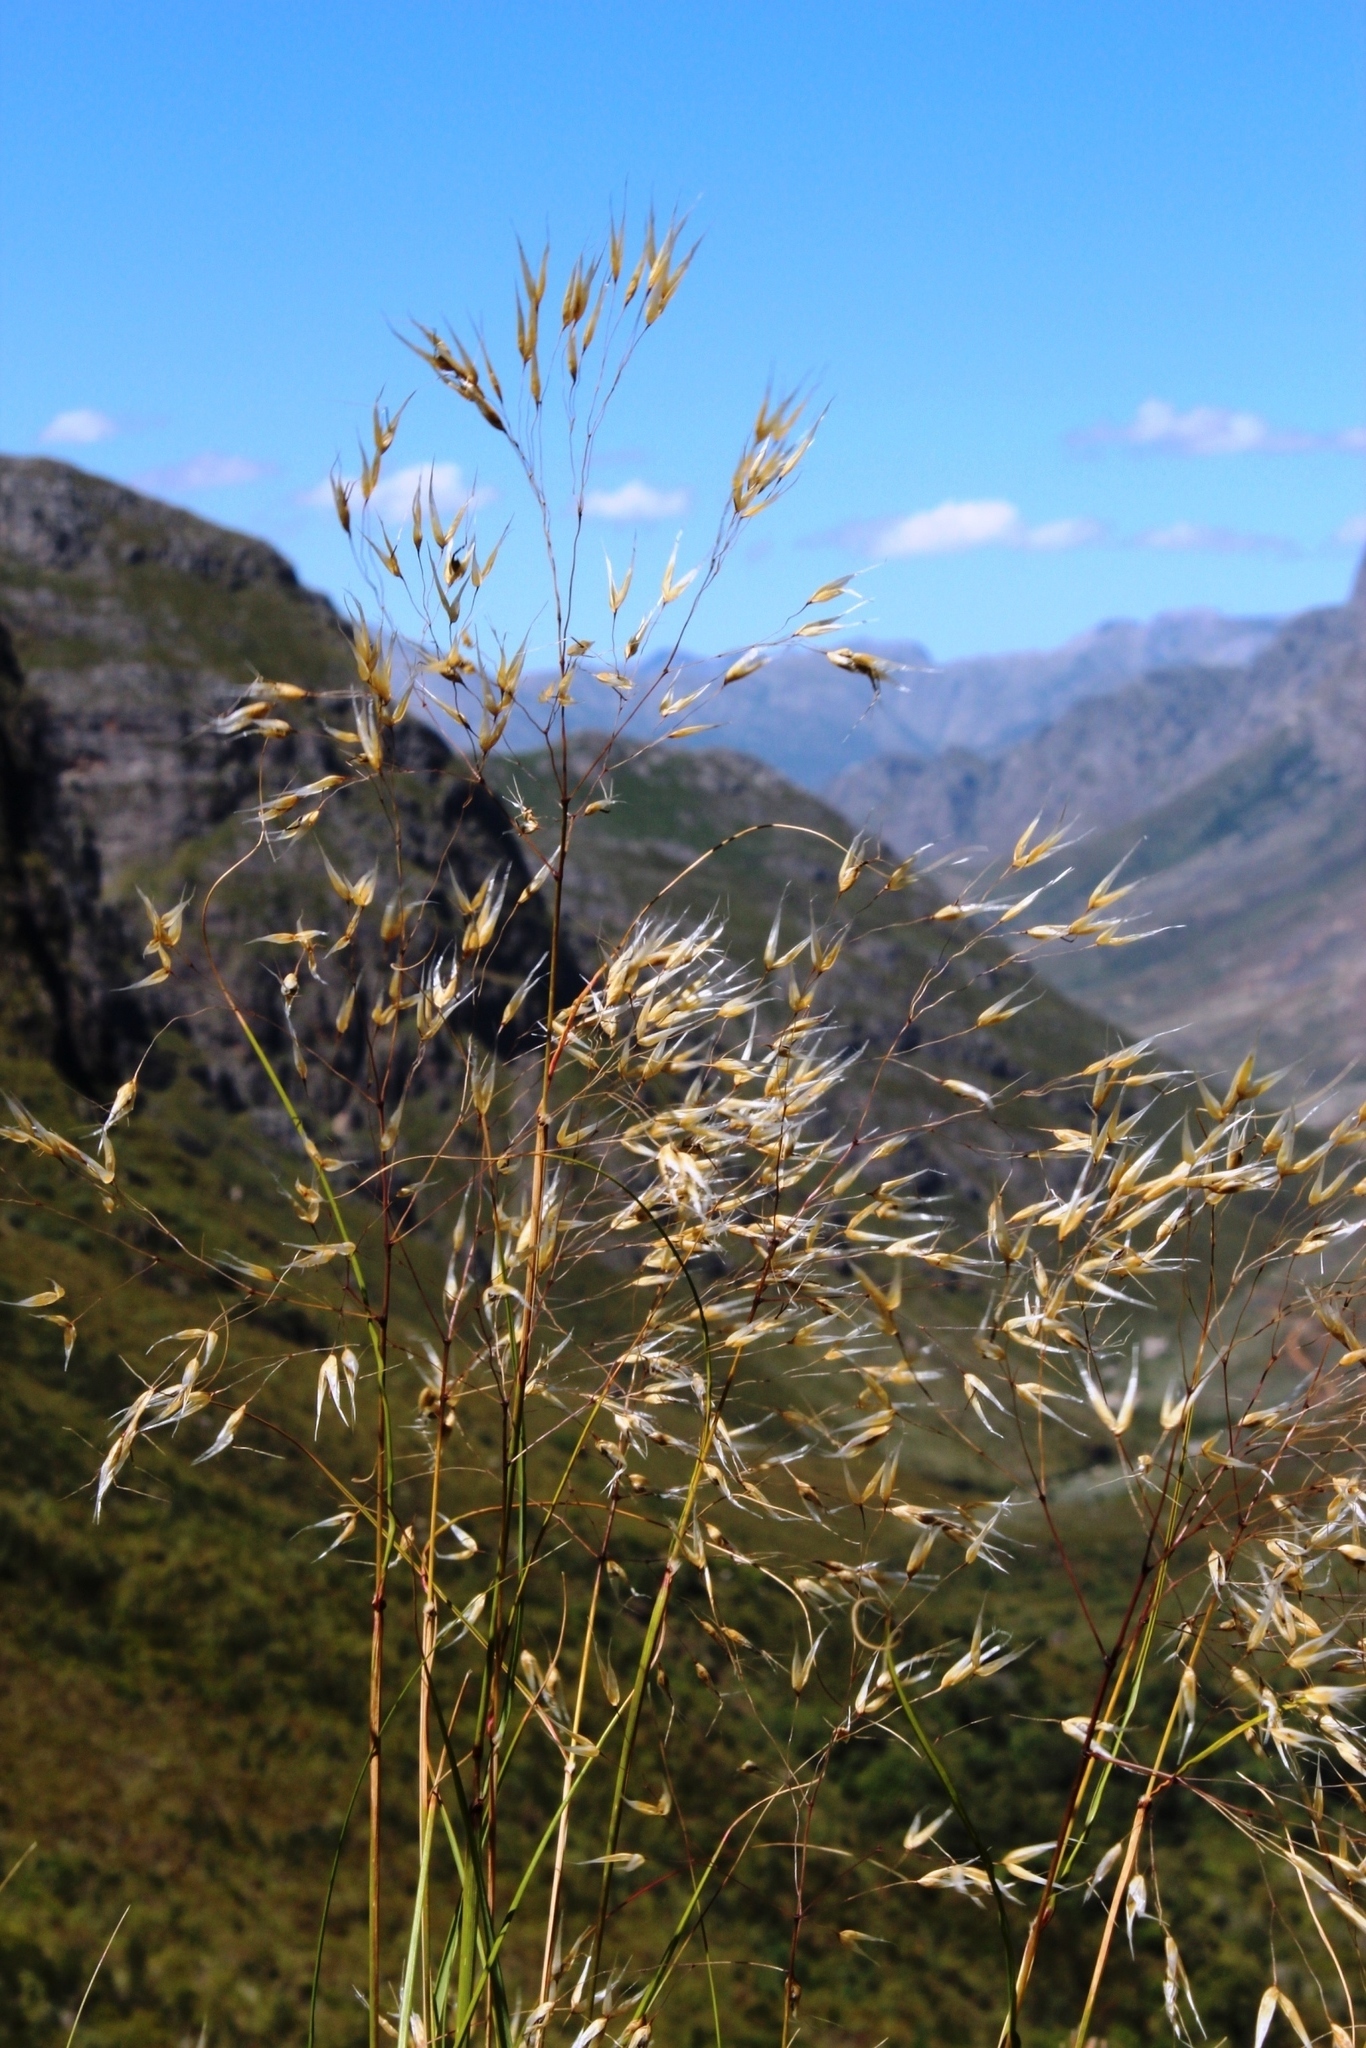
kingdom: Plantae
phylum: Tracheophyta
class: Liliopsida
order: Poales
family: Poaceae
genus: Pentameris
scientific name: Pentameris thuarii
